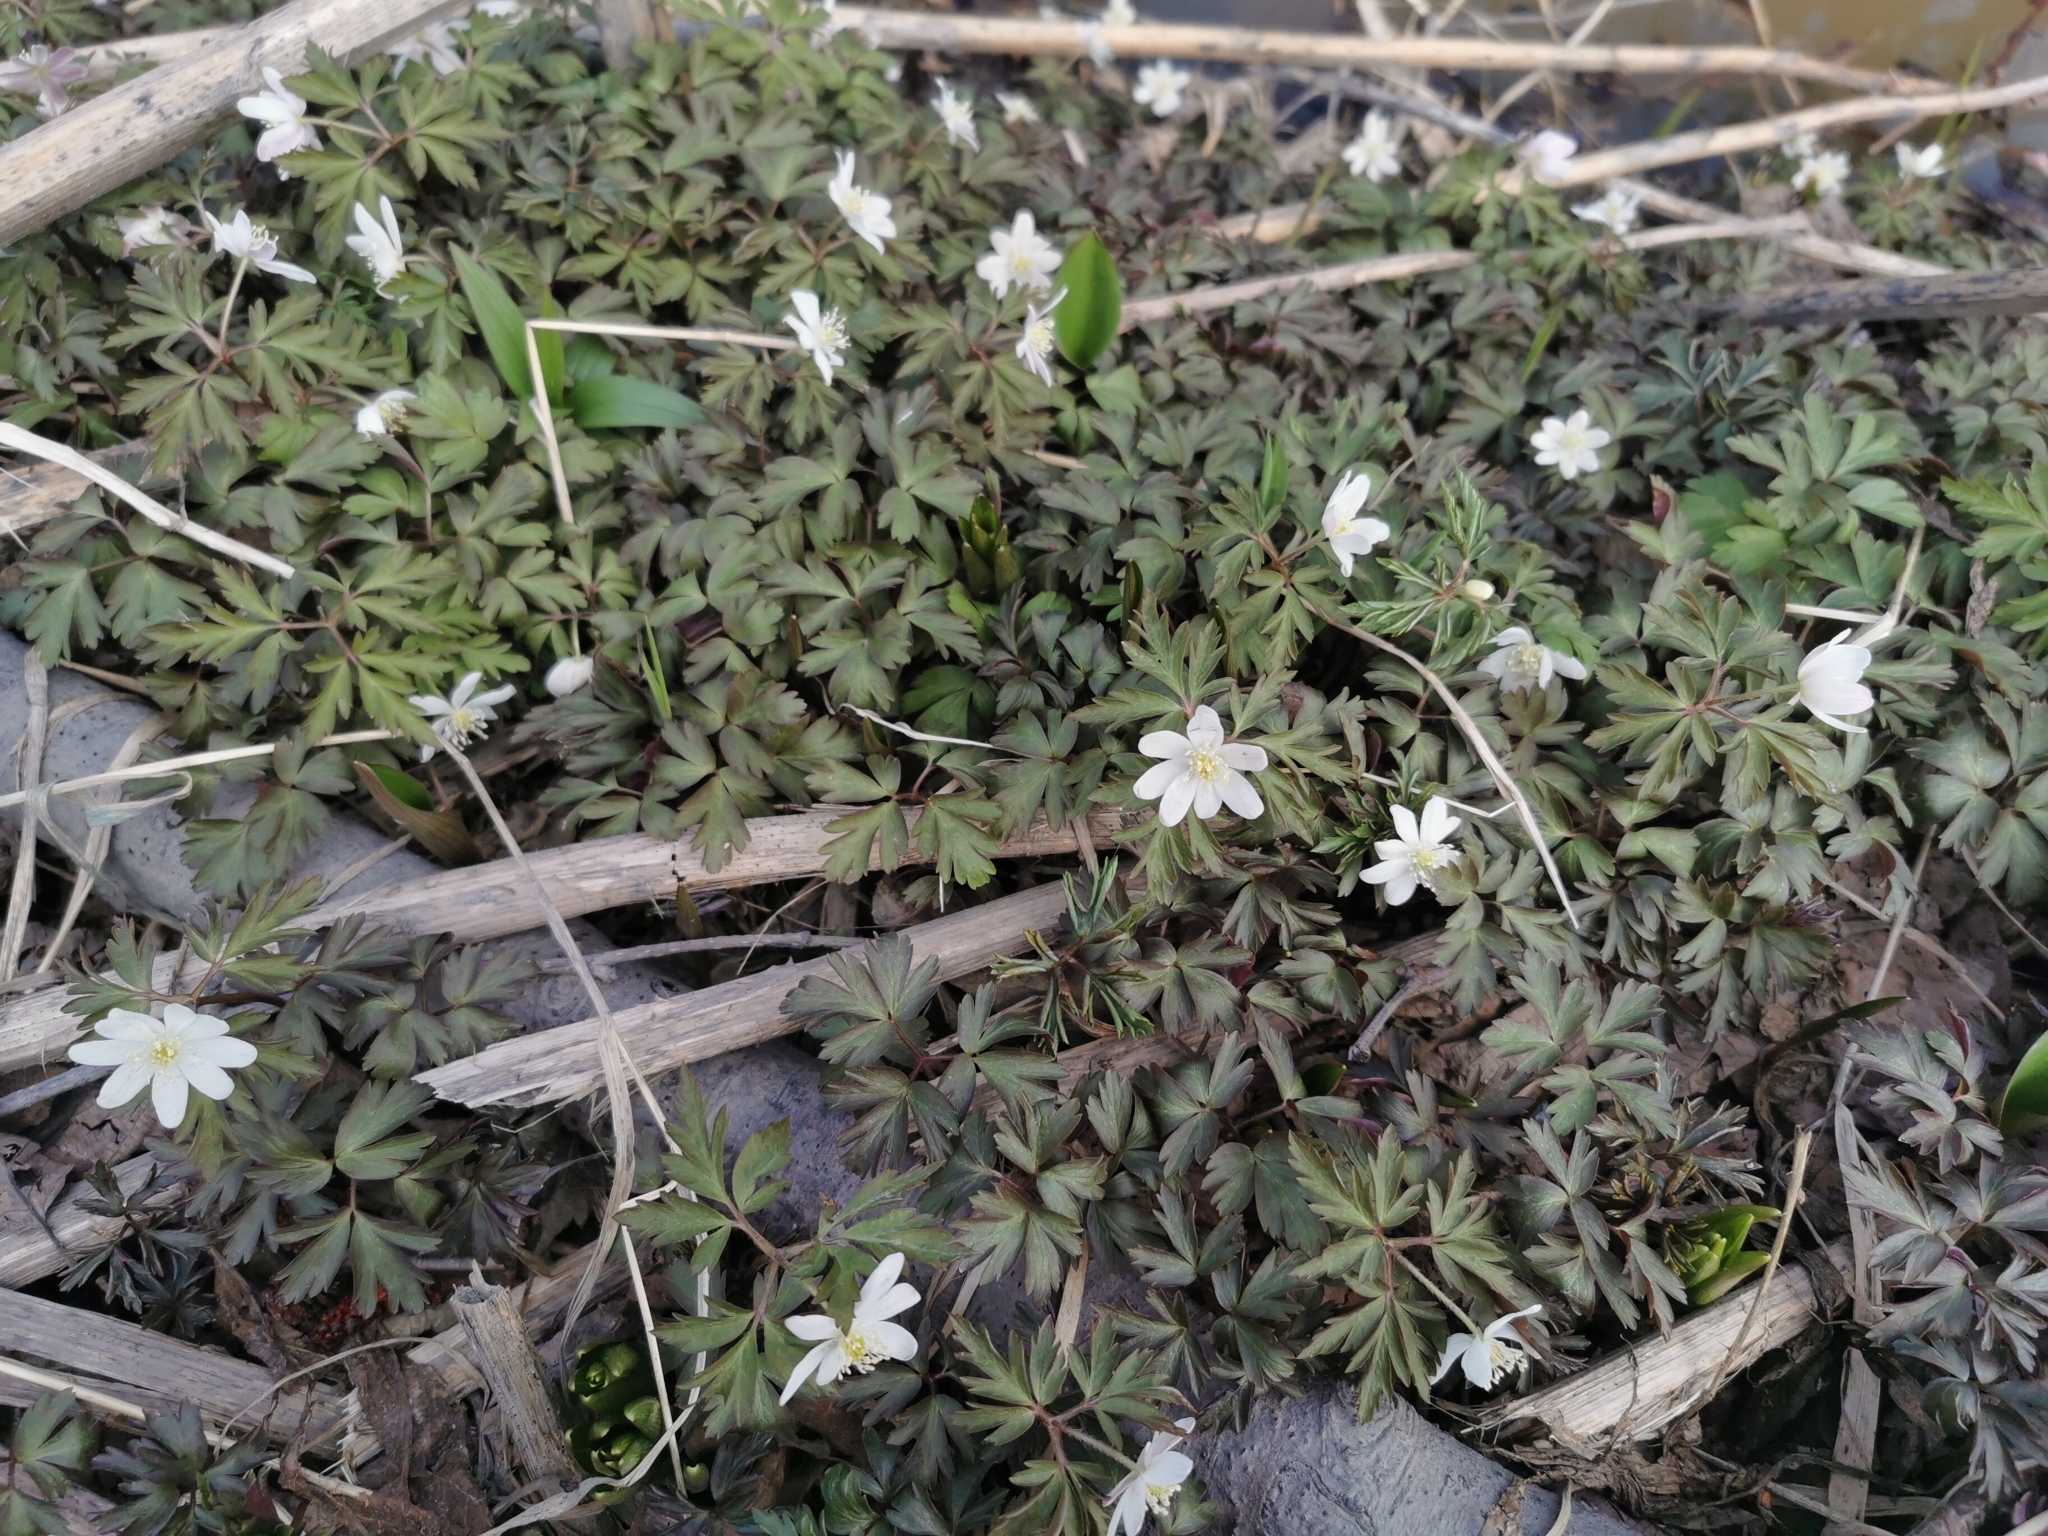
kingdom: Plantae
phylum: Tracheophyta
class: Magnoliopsida
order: Ranunculales
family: Ranunculaceae
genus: Anemone
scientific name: Anemone amurensis
